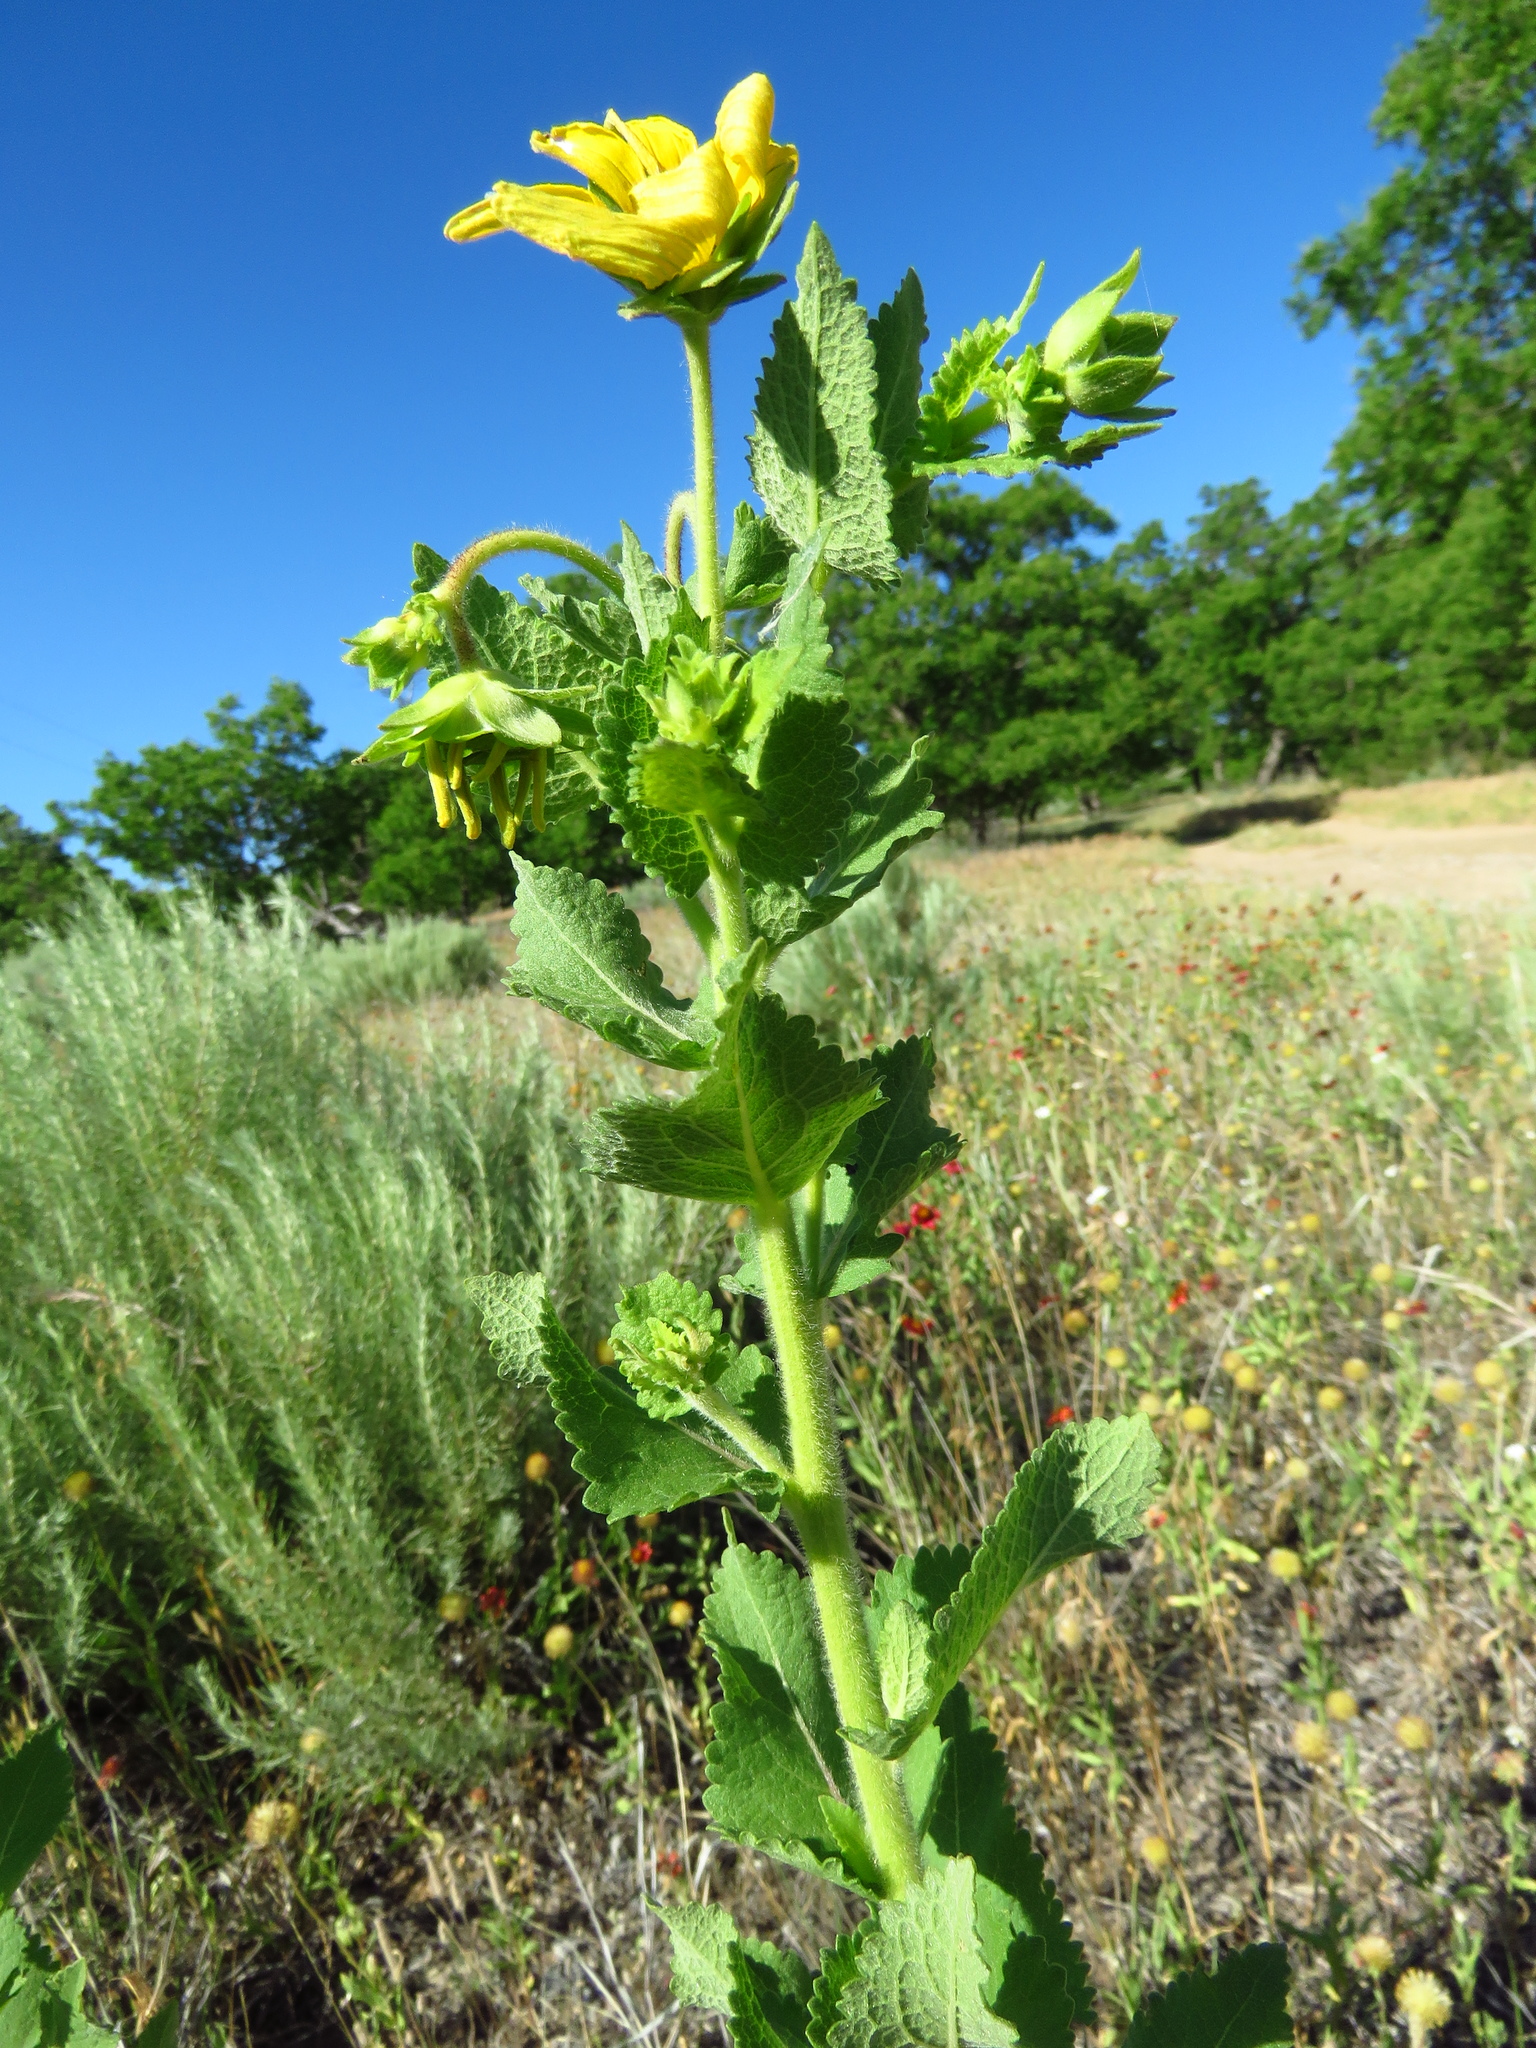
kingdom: Plantae
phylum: Tracheophyta
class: Magnoliopsida
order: Asterales
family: Asteraceae
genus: Berlandiera
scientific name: Berlandiera texana
